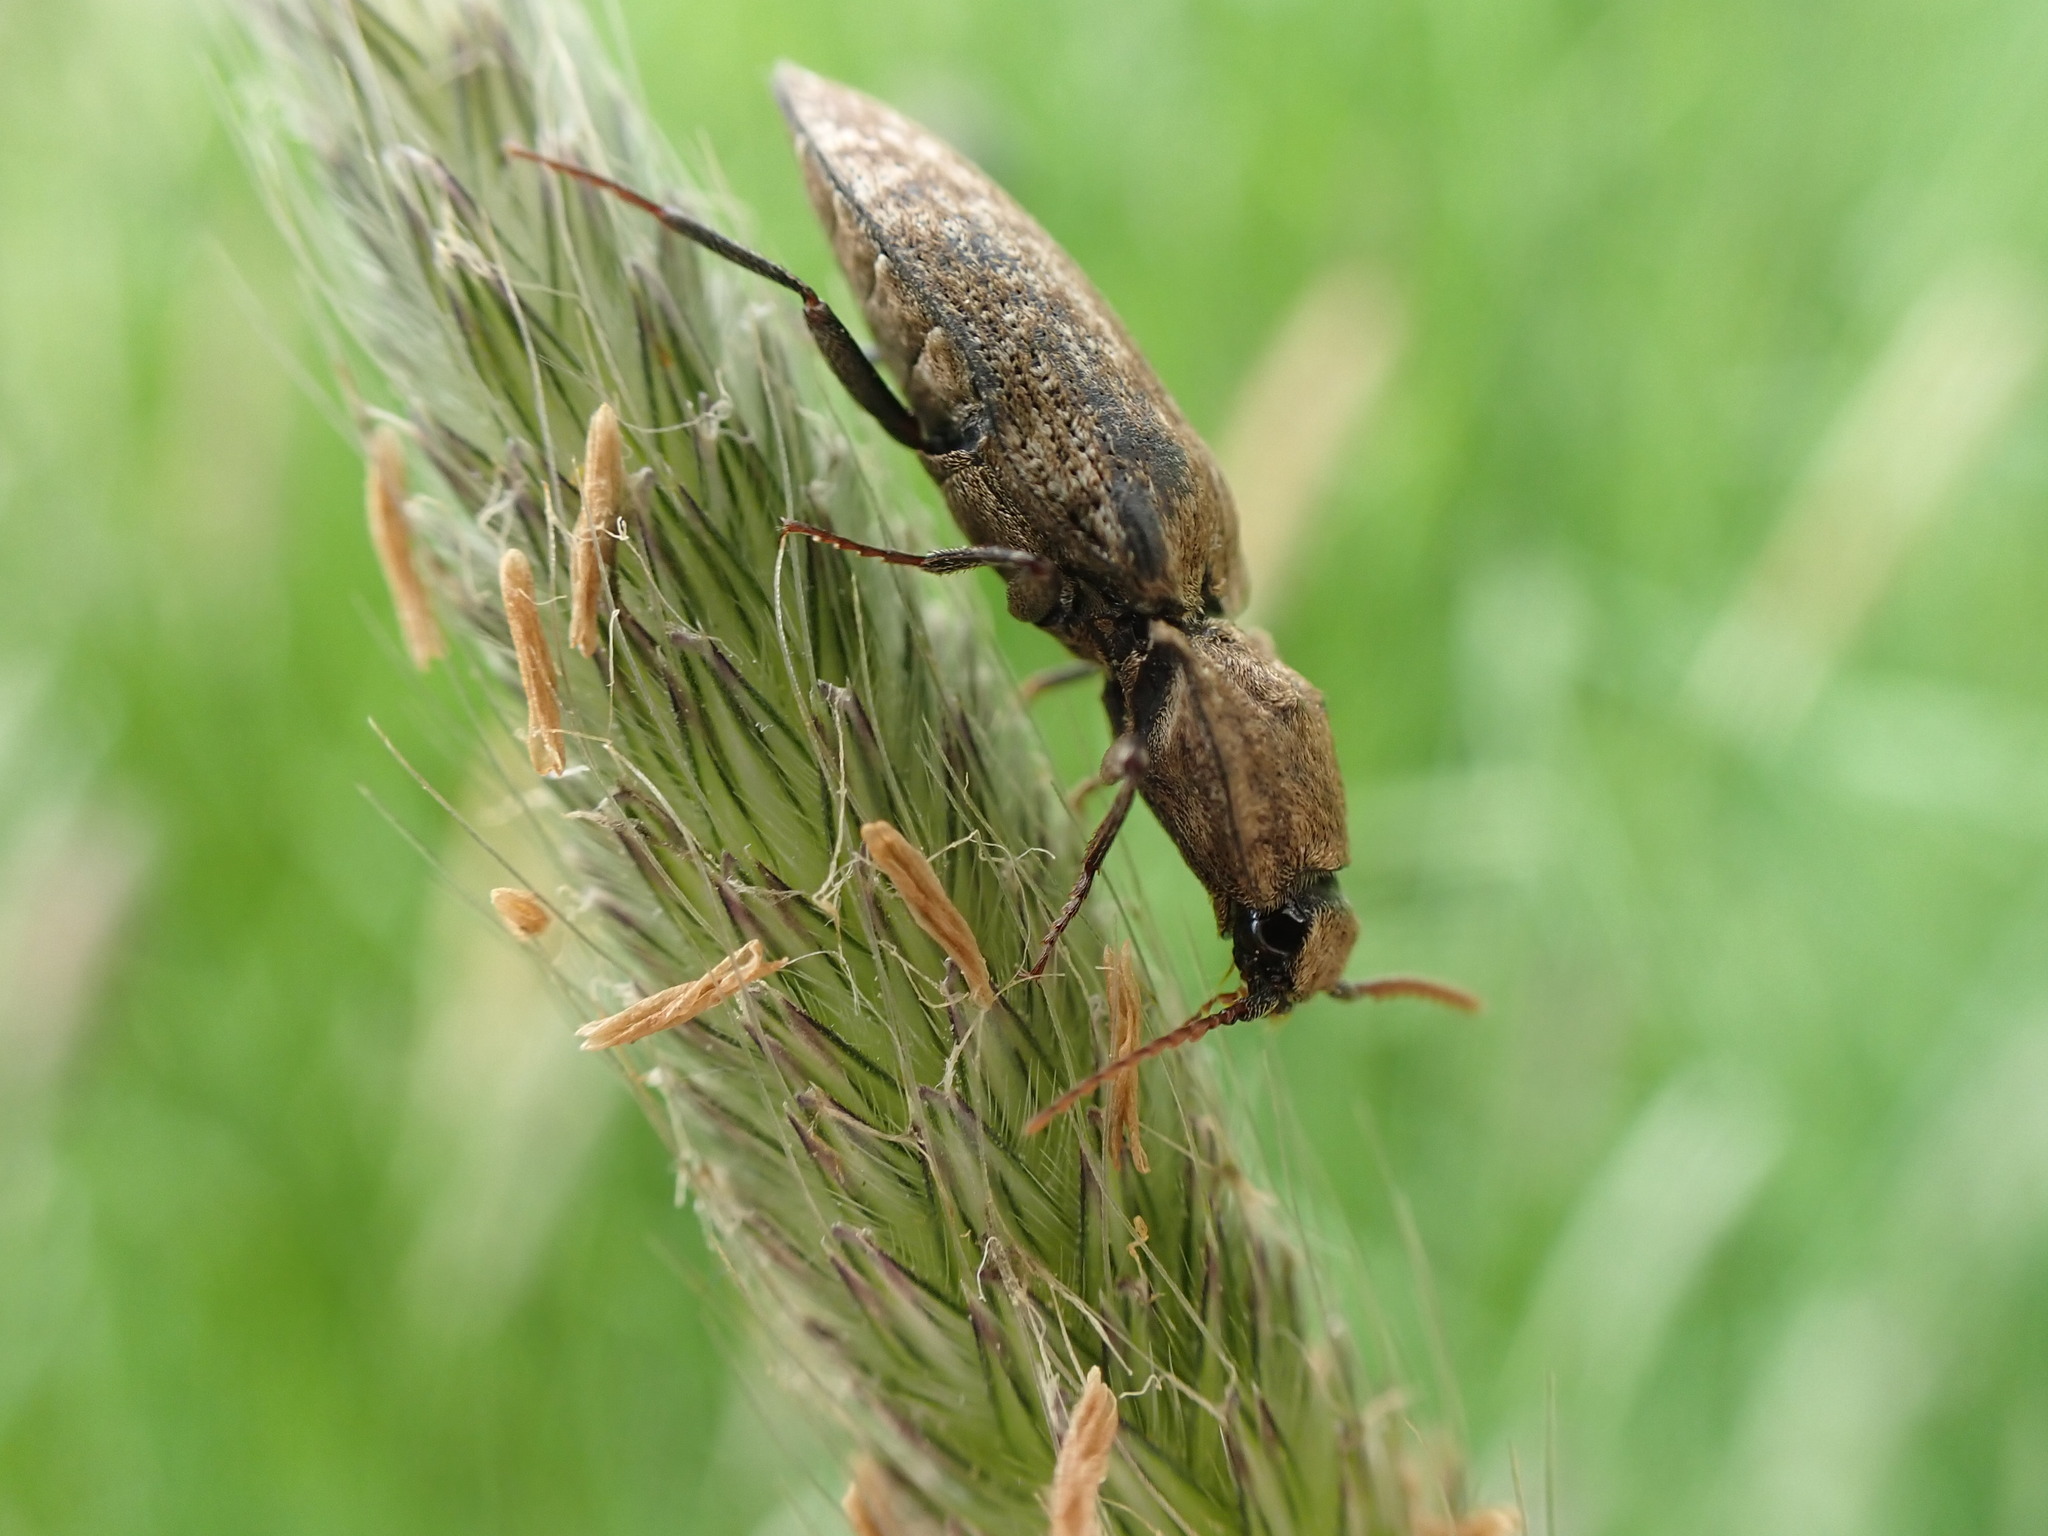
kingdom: Animalia
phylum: Arthropoda
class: Insecta
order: Coleoptera
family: Elateridae
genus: Agrypnus
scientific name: Agrypnus murinus
